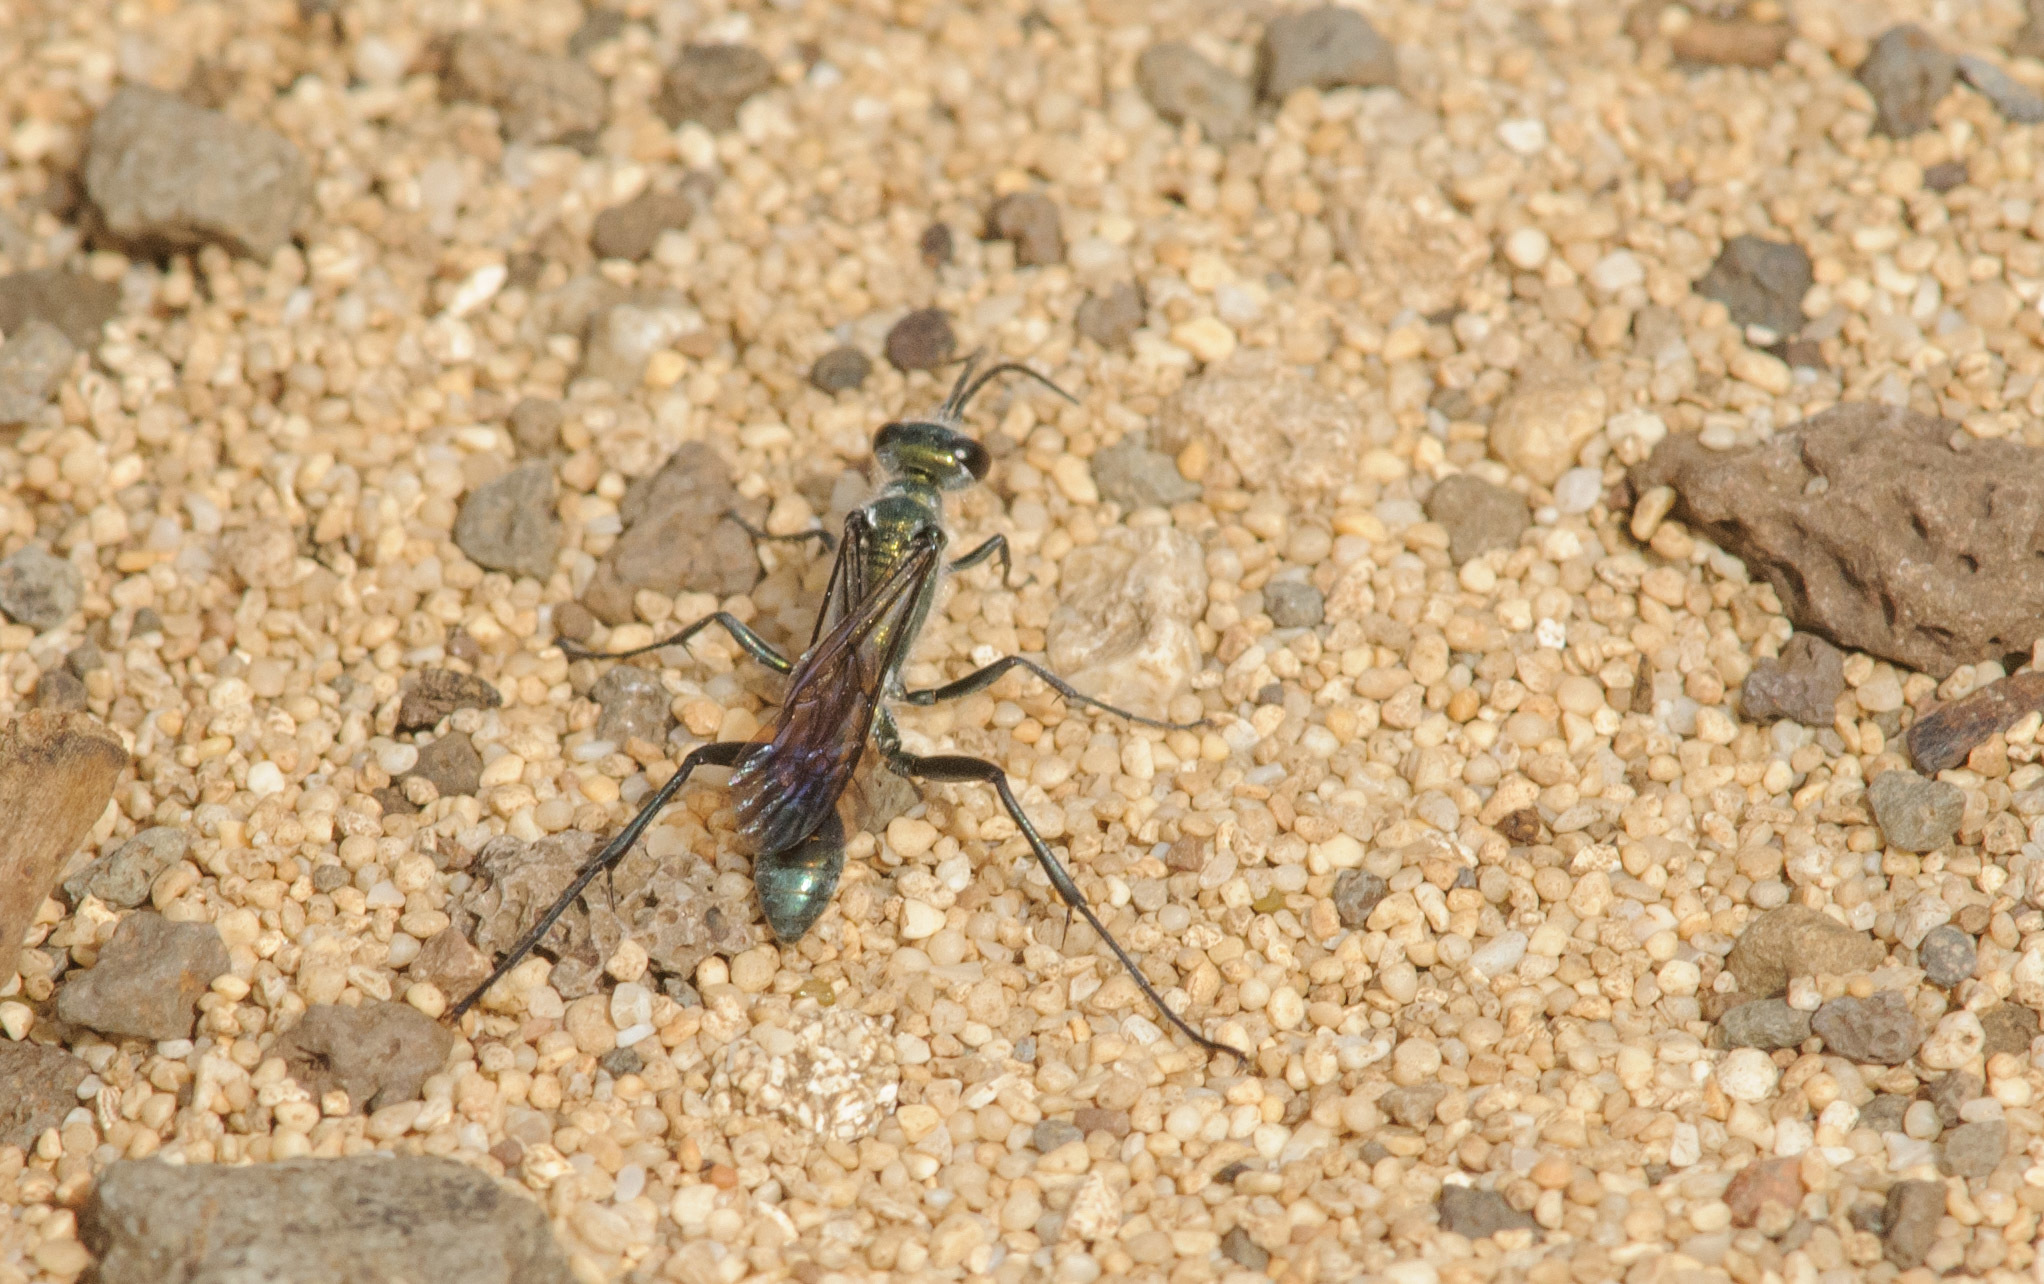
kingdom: Animalia
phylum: Arthropoda
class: Insecta
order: Hymenoptera
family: Sphecidae
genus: Chalybion
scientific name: Chalybion bengalense
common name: Mud dauber
